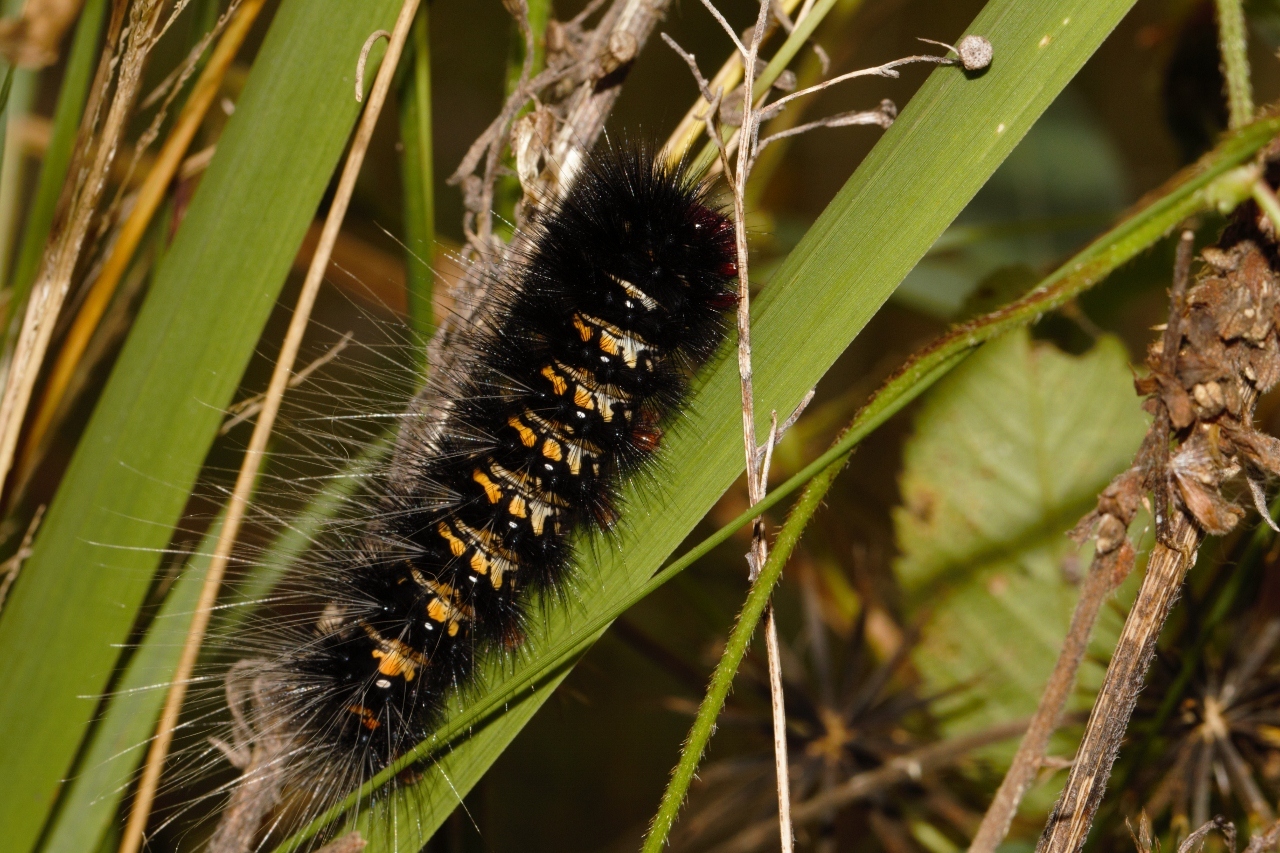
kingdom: Animalia
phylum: Arthropoda
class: Insecta
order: Lepidoptera
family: Erebidae
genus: Afromurzinia
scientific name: Afromurzinia lutescens
